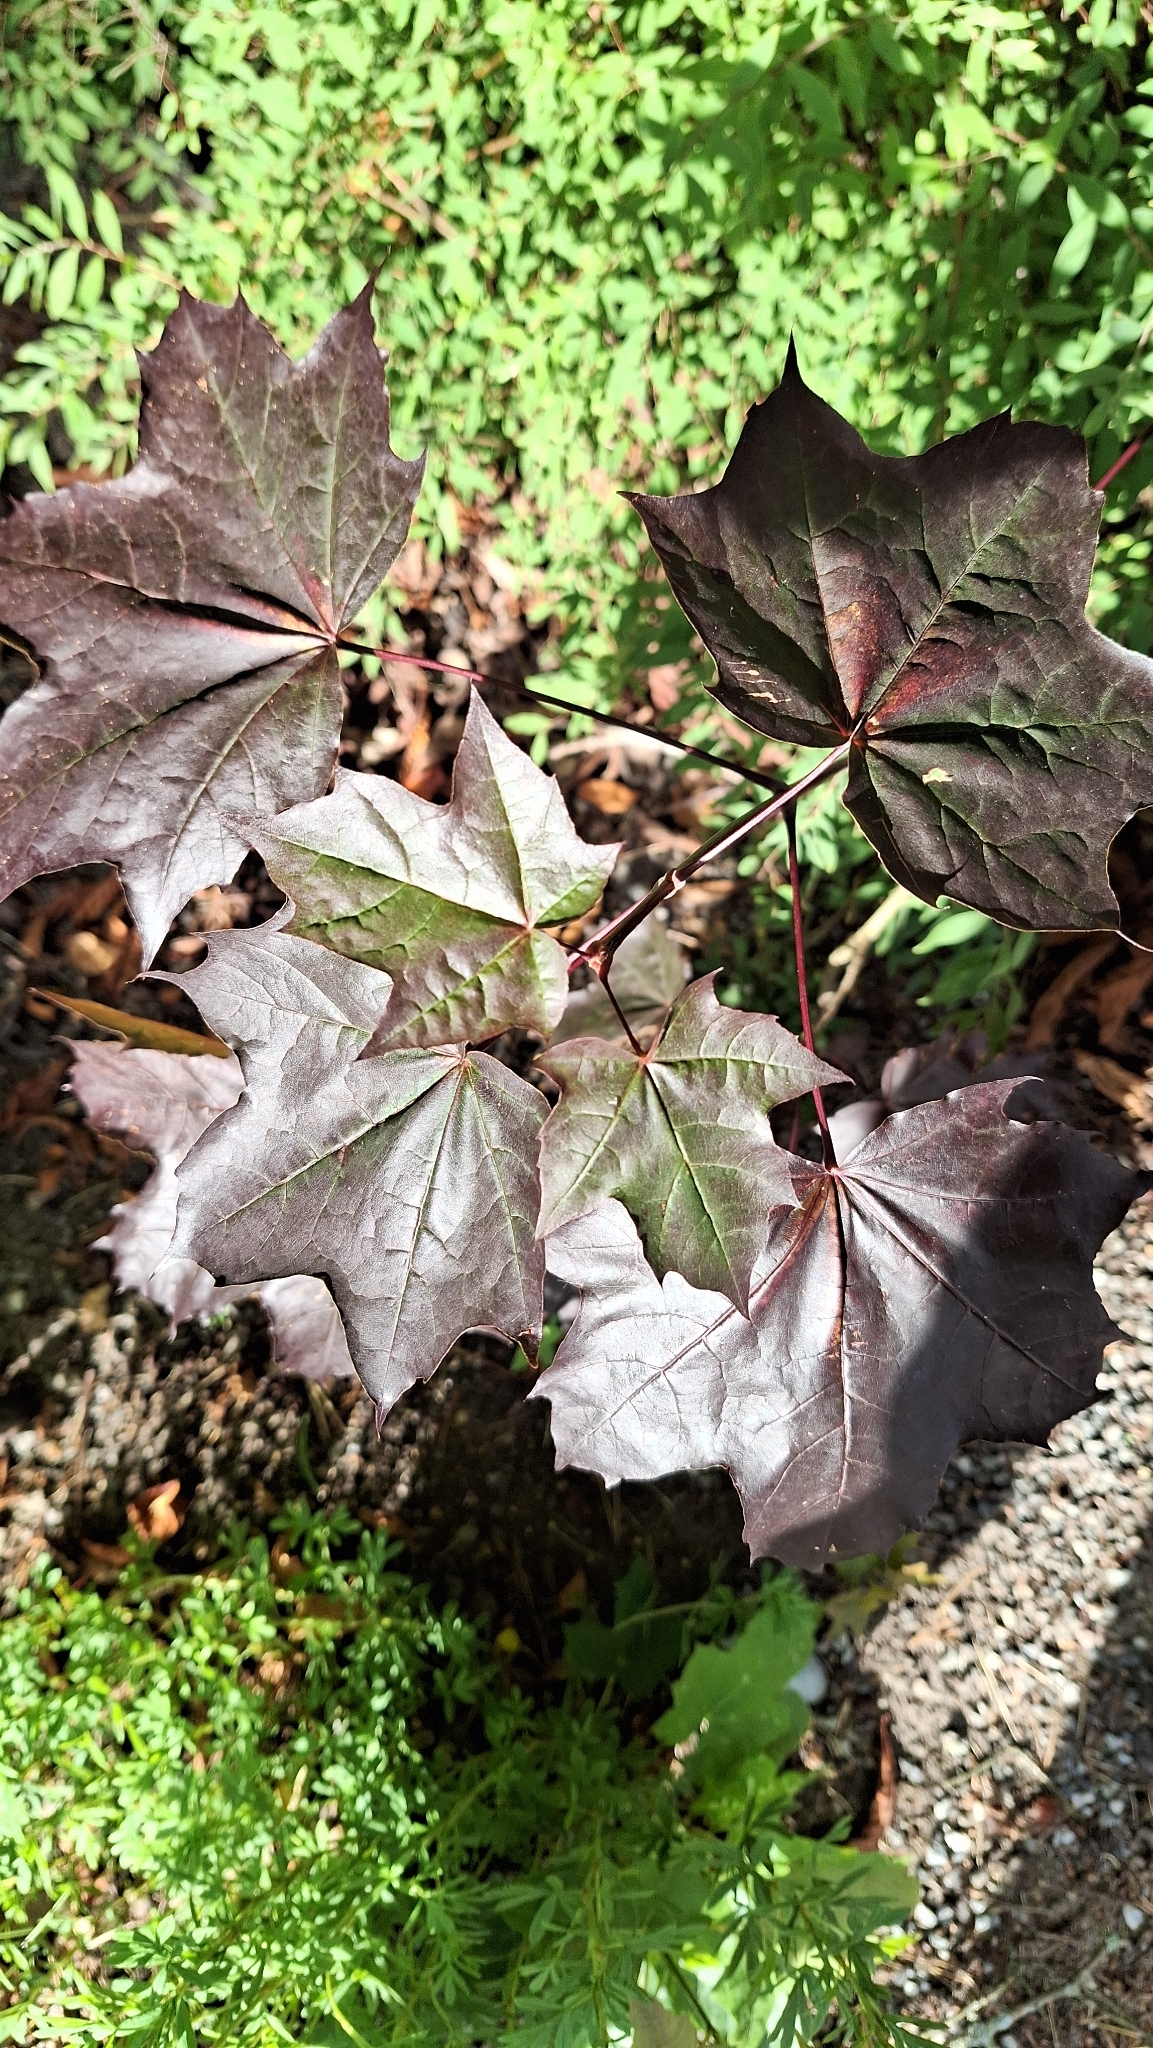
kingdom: Plantae
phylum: Tracheophyta
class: Magnoliopsida
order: Sapindales
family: Sapindaceae
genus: Acer
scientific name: Acer platanoides
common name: Norway maple
